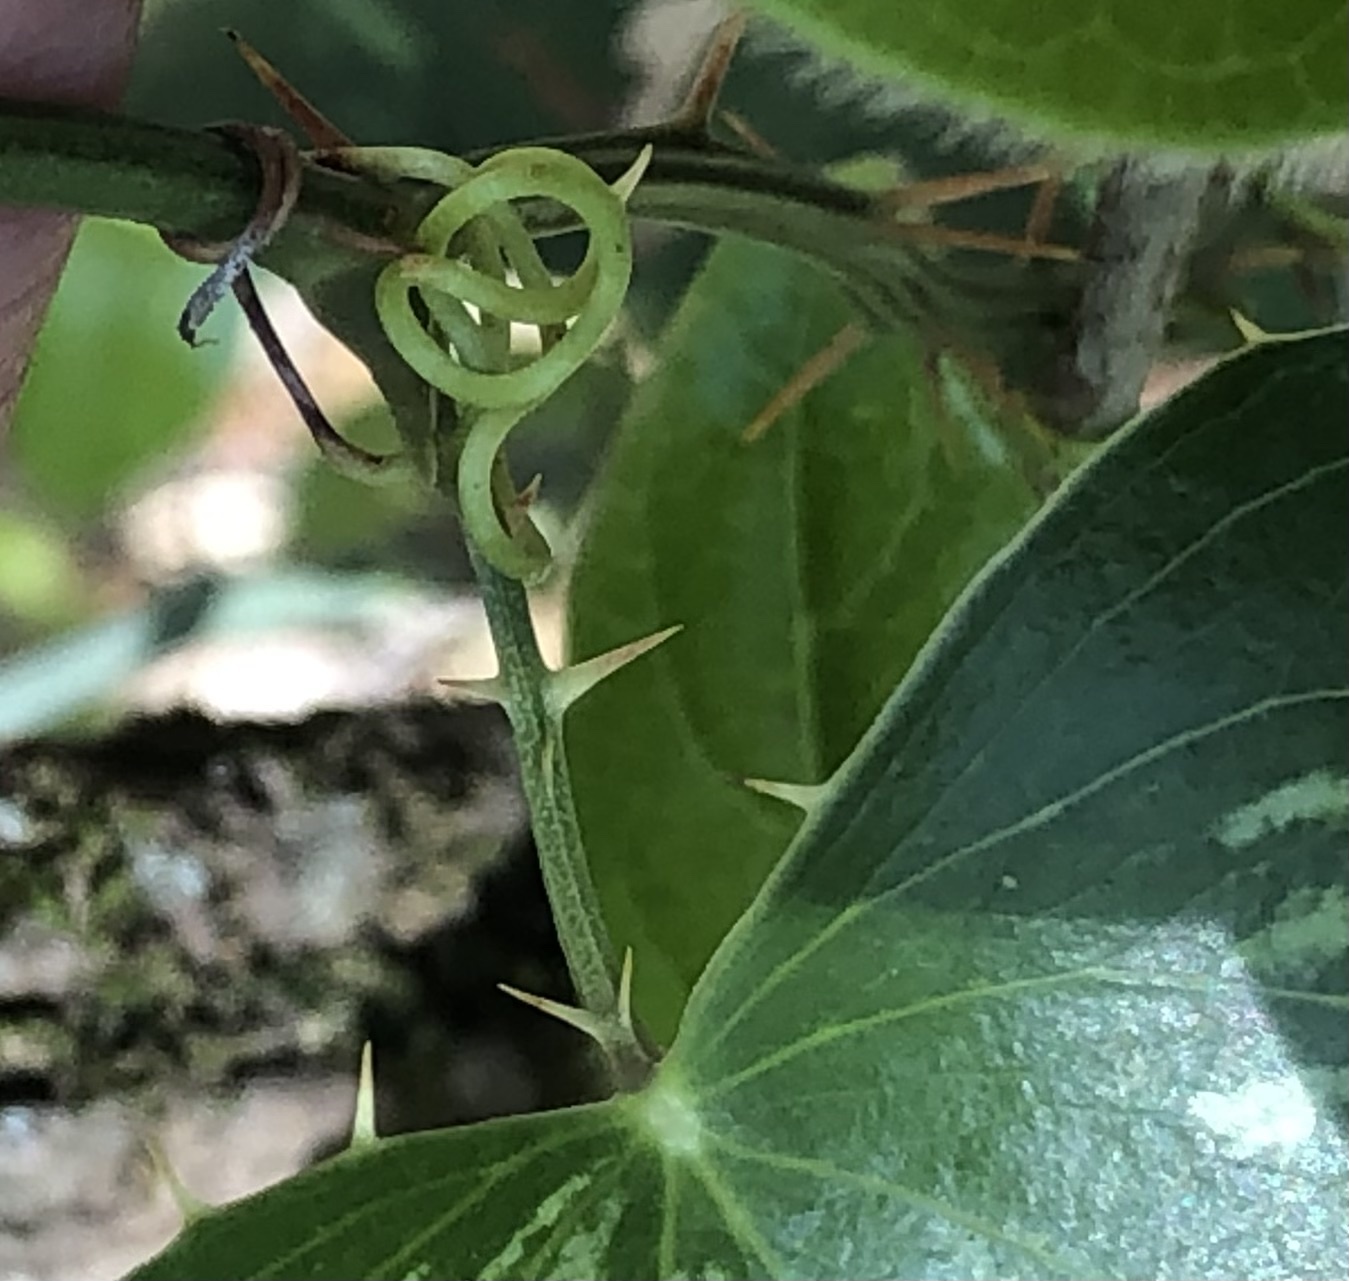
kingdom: Plantae
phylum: Tracheophyta
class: Liliopsida
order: Liliales
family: Smilacaceae
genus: Smilax
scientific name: Smilax aspera
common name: Common smilax
